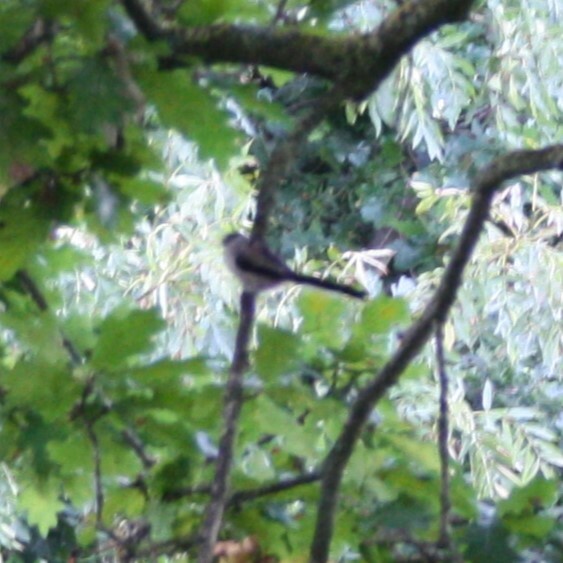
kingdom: Animalia
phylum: Chordata
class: Aves
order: Passeriformes
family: Aegithalidae
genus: Aegithalos
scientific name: Aegithalos caudatus
